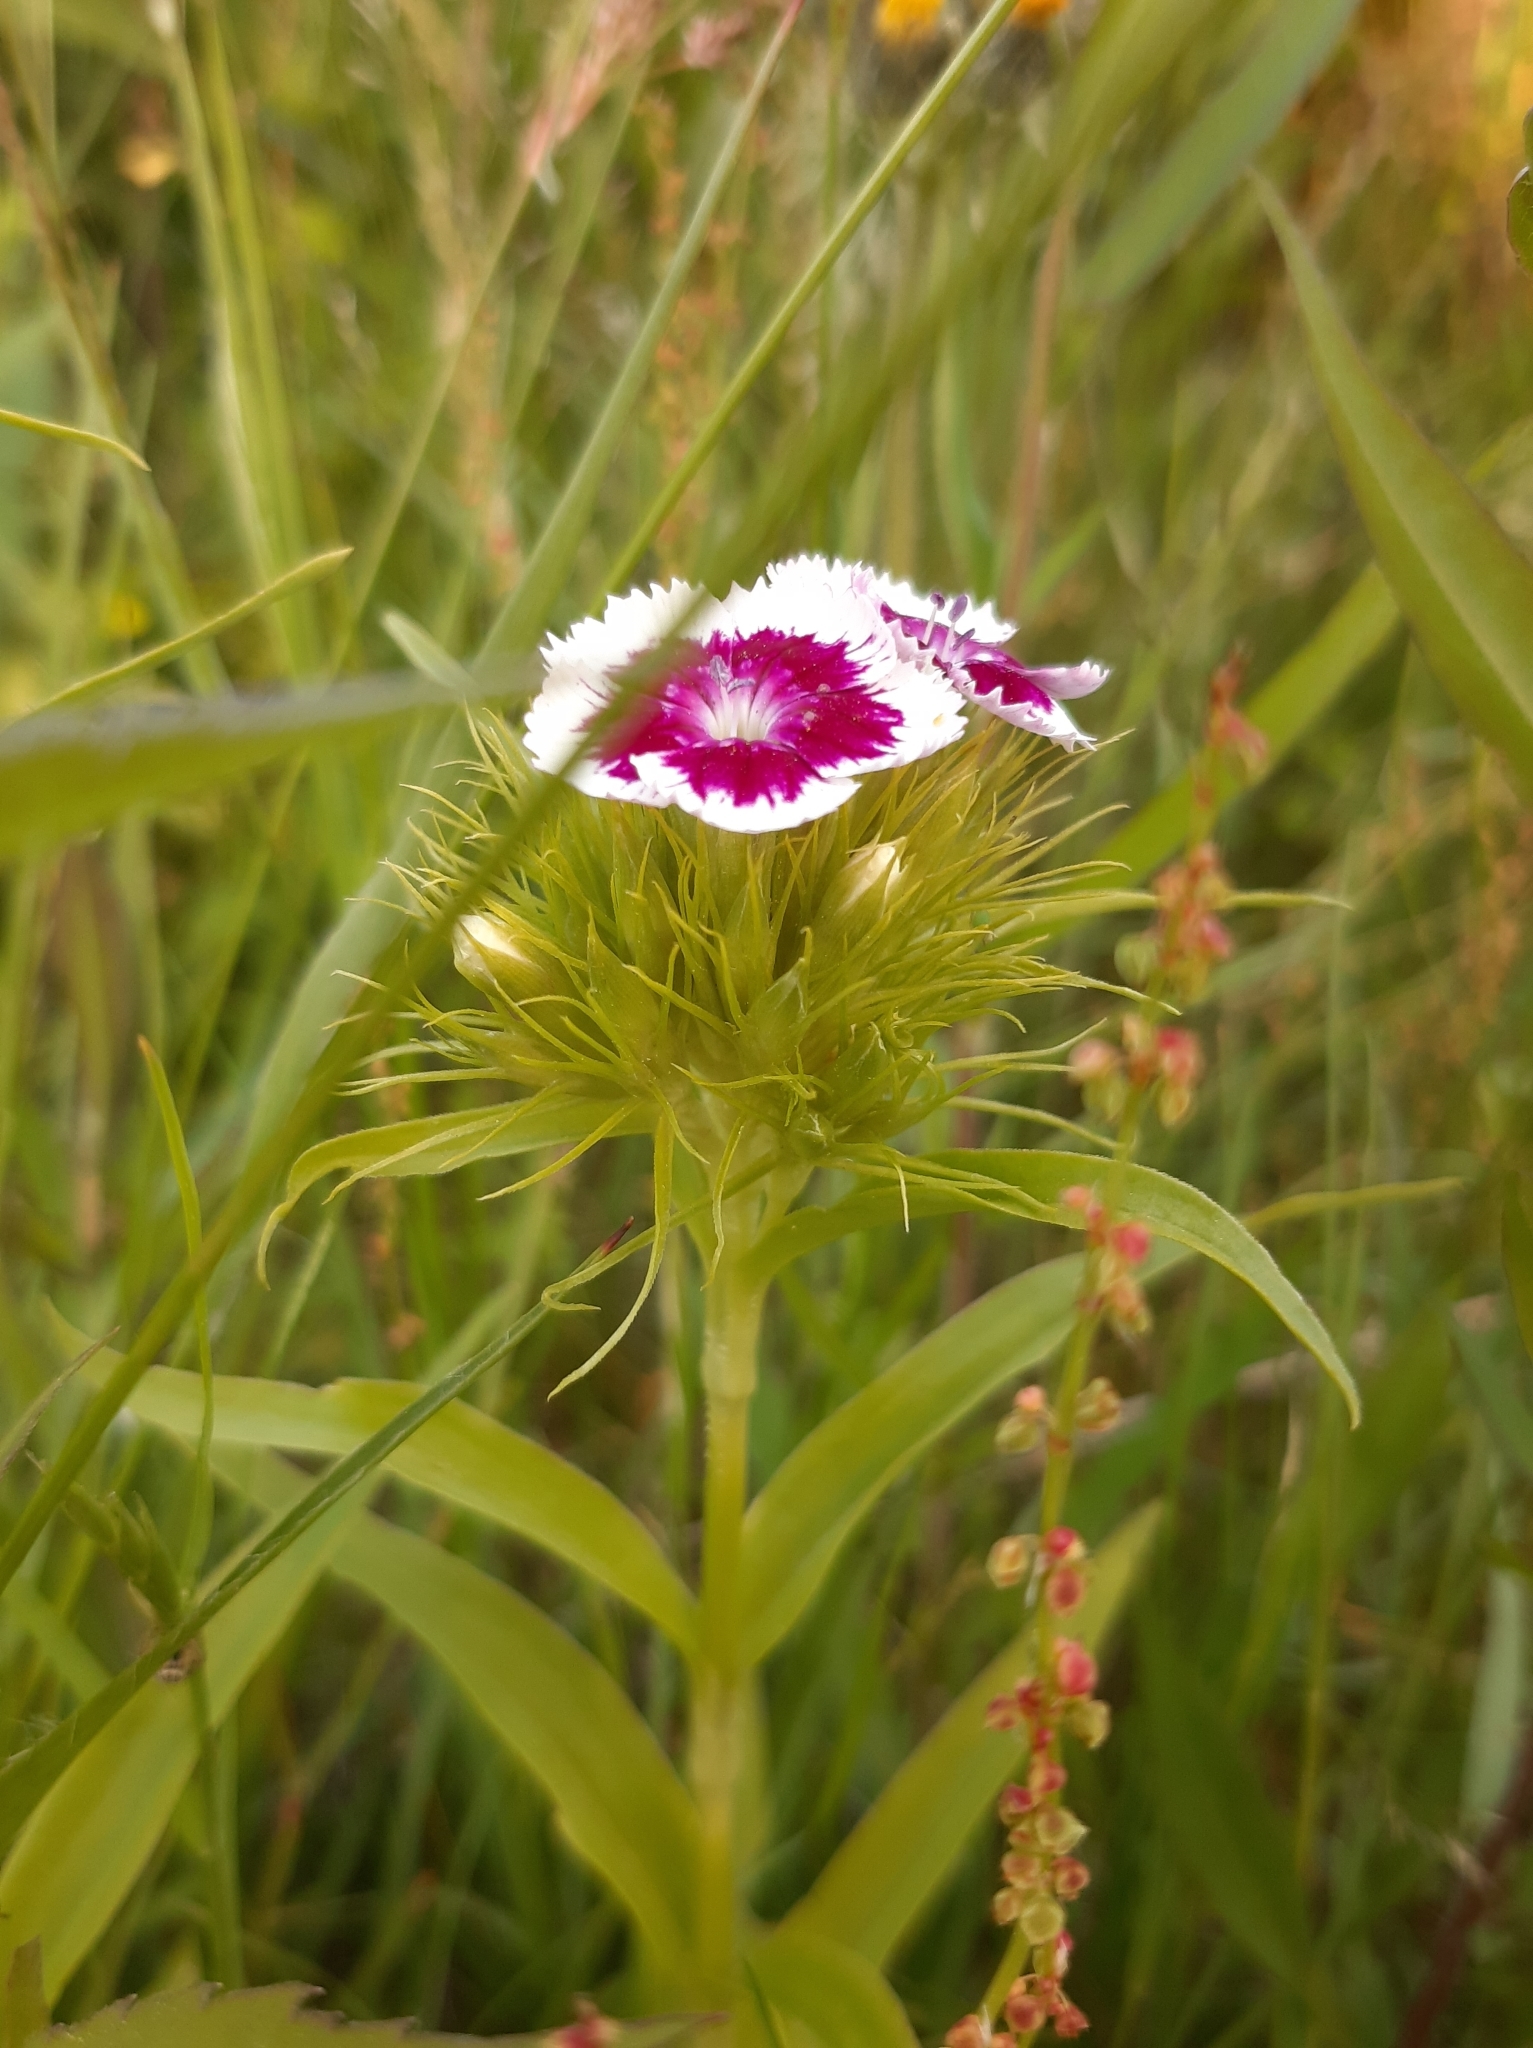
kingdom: Plantae
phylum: Tracheophyta
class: Magnoliopsida
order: Caryophyllales
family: Caryophyllaceae
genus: Dianthus
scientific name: Dianthus barbatus
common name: Sweet-william
